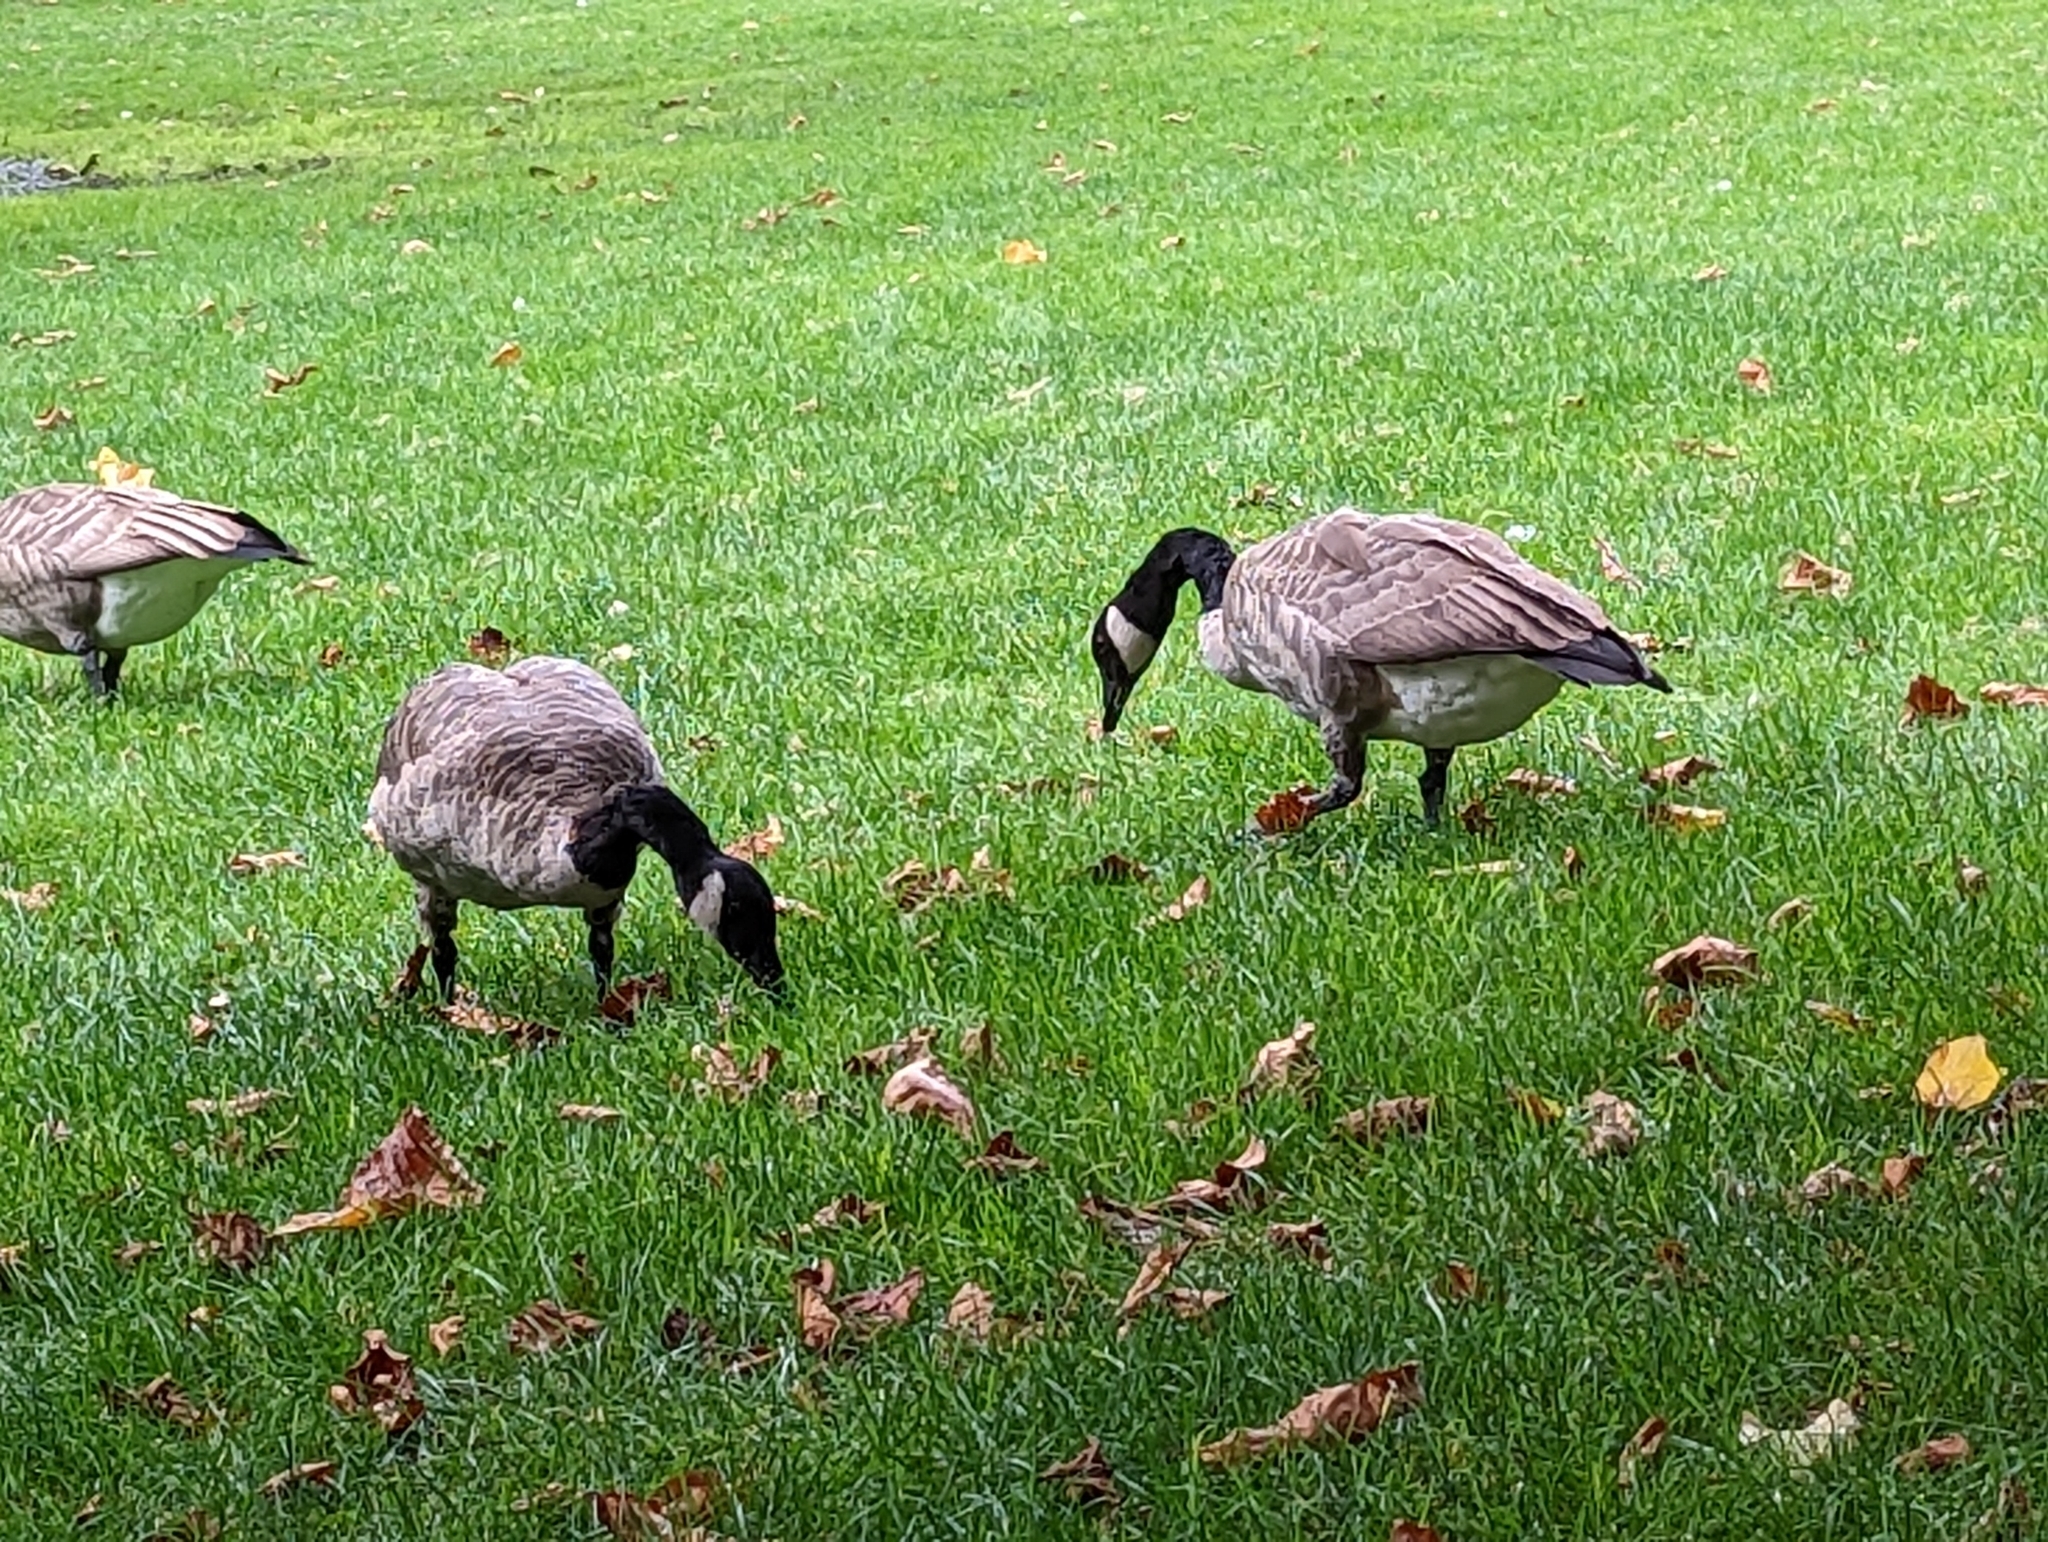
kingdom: Animalia
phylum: Chordata
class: Aves
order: Anseriformes
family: Anatidae
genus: Branta
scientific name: Branta canadensis
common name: Canada goose
